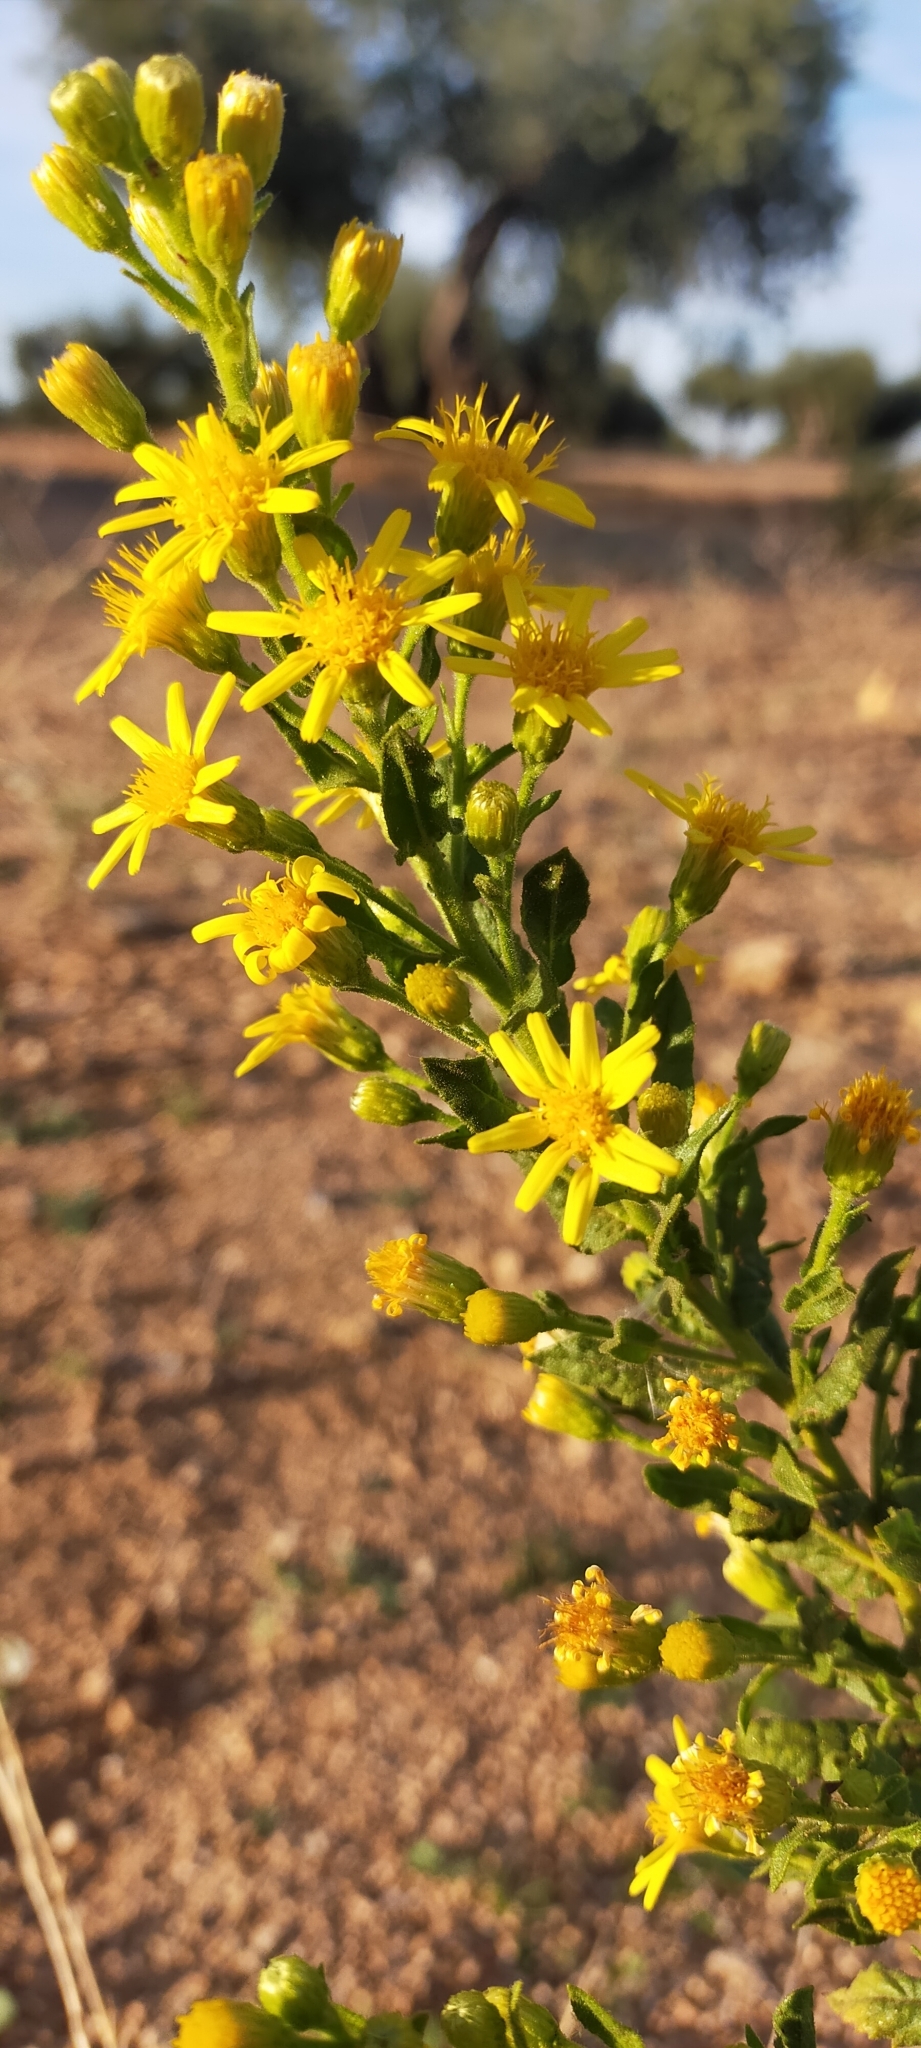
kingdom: Plantae
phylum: Tracheophyta
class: Magnoliopsida
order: Asterales
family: Asteraceae
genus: Dittrichia
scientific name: Dittrichia viscosa
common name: Woody fleabane
